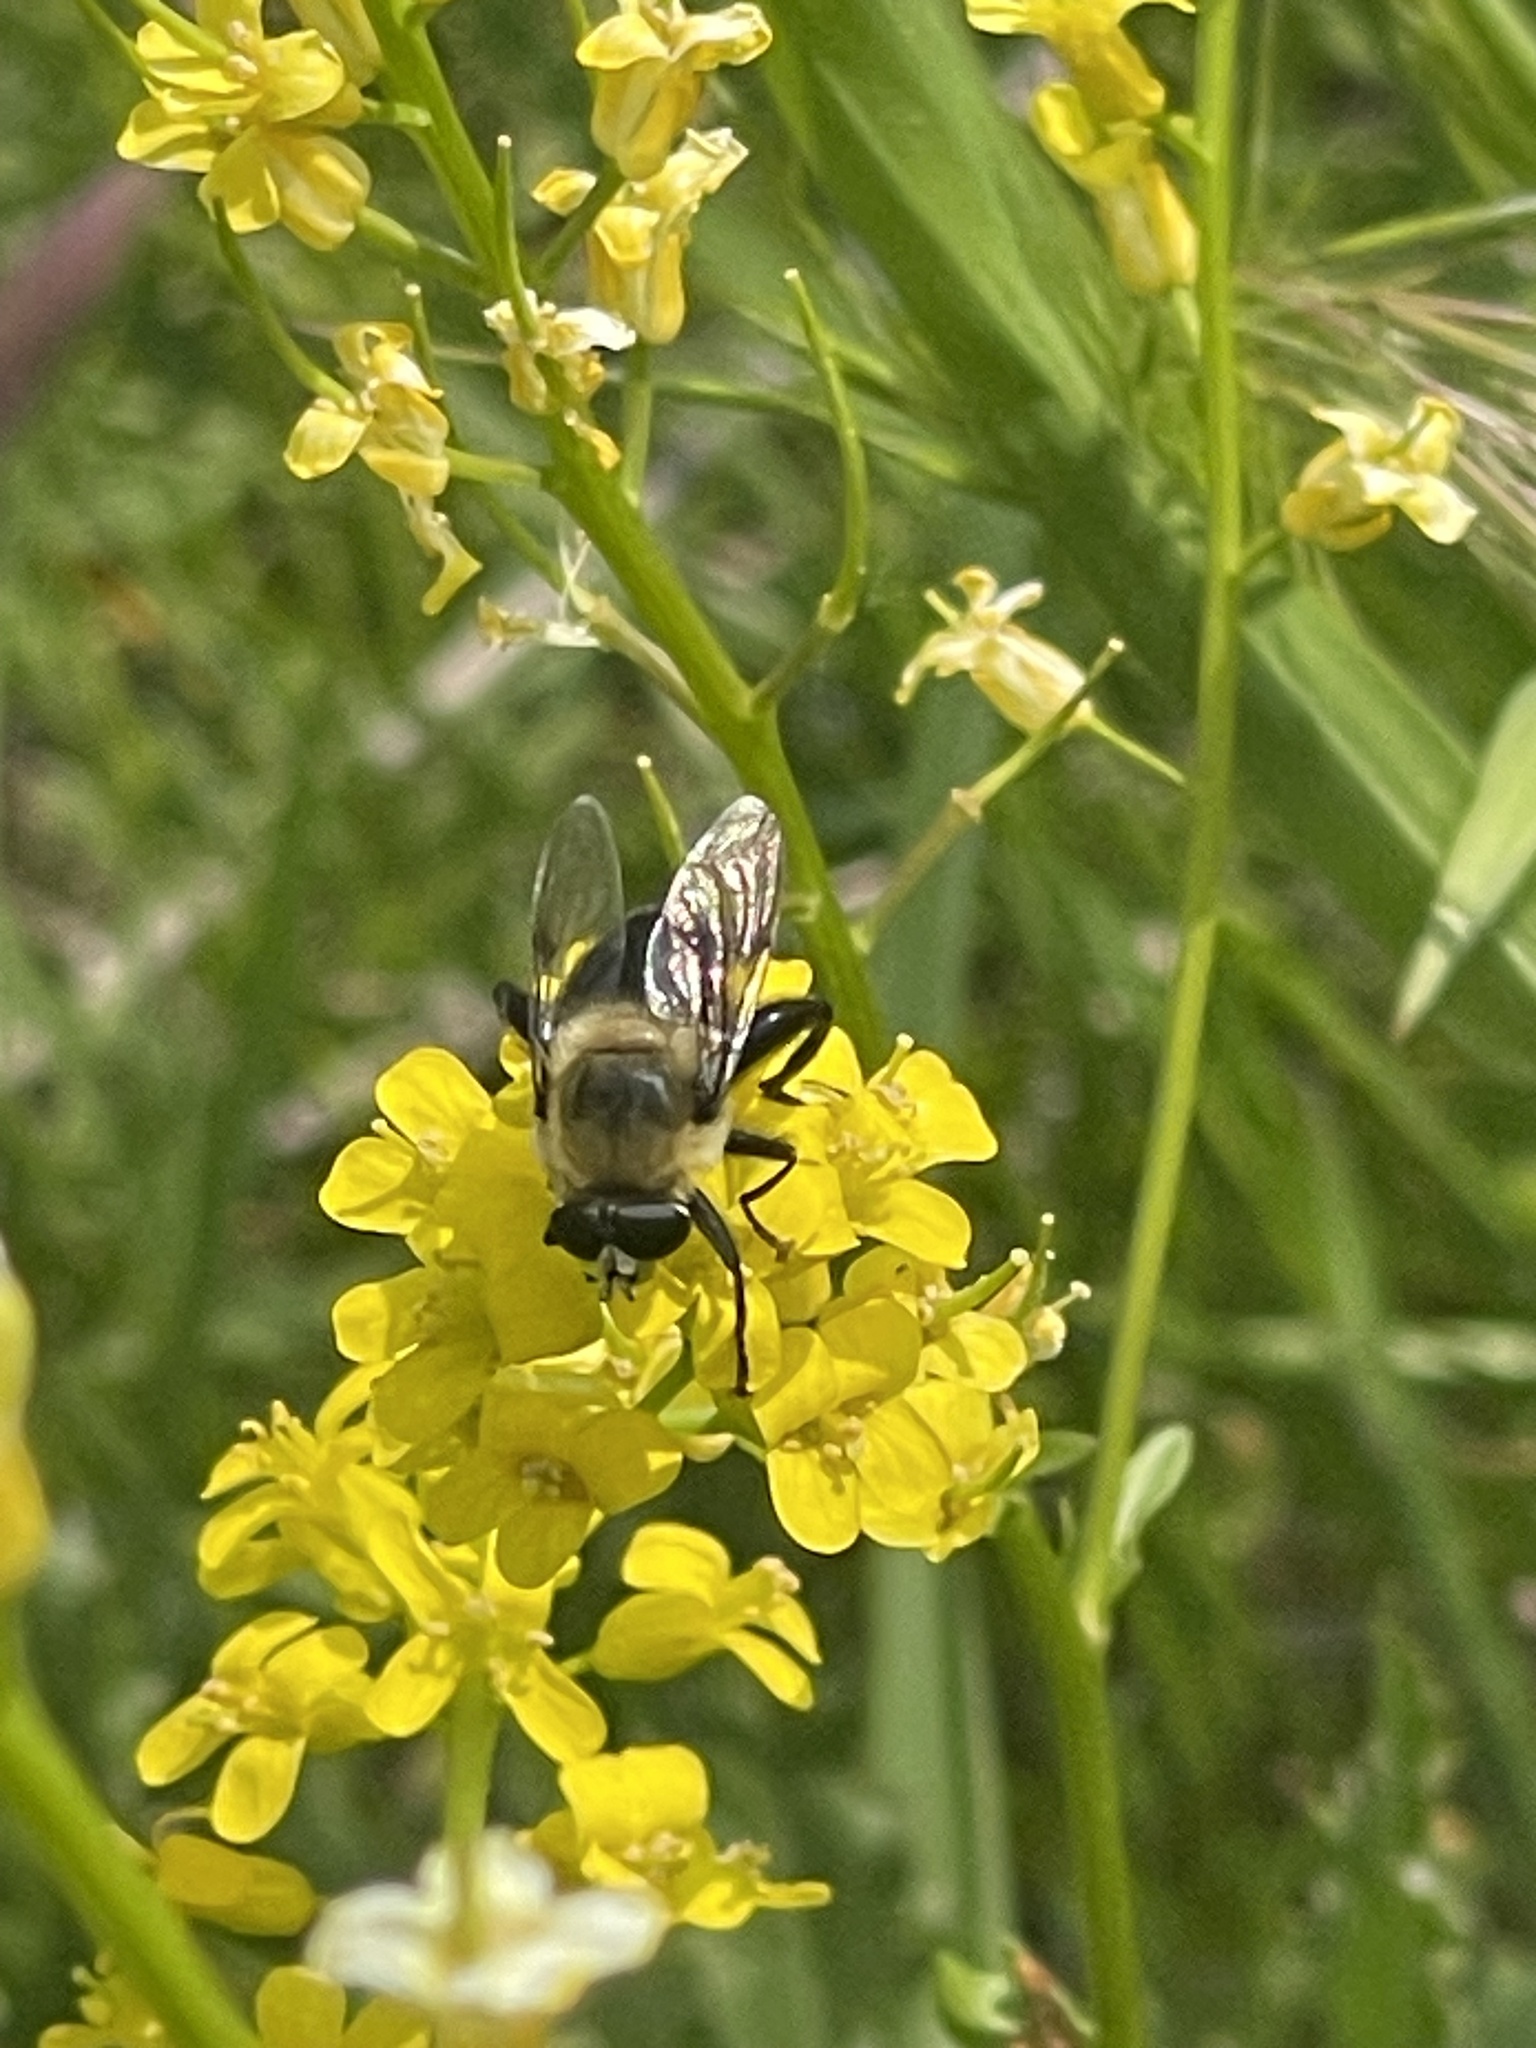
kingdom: Animalia
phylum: Arthropoda
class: Insecta
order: Diptera
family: Syrphidae
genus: Imatisma
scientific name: Imatisma bautias
